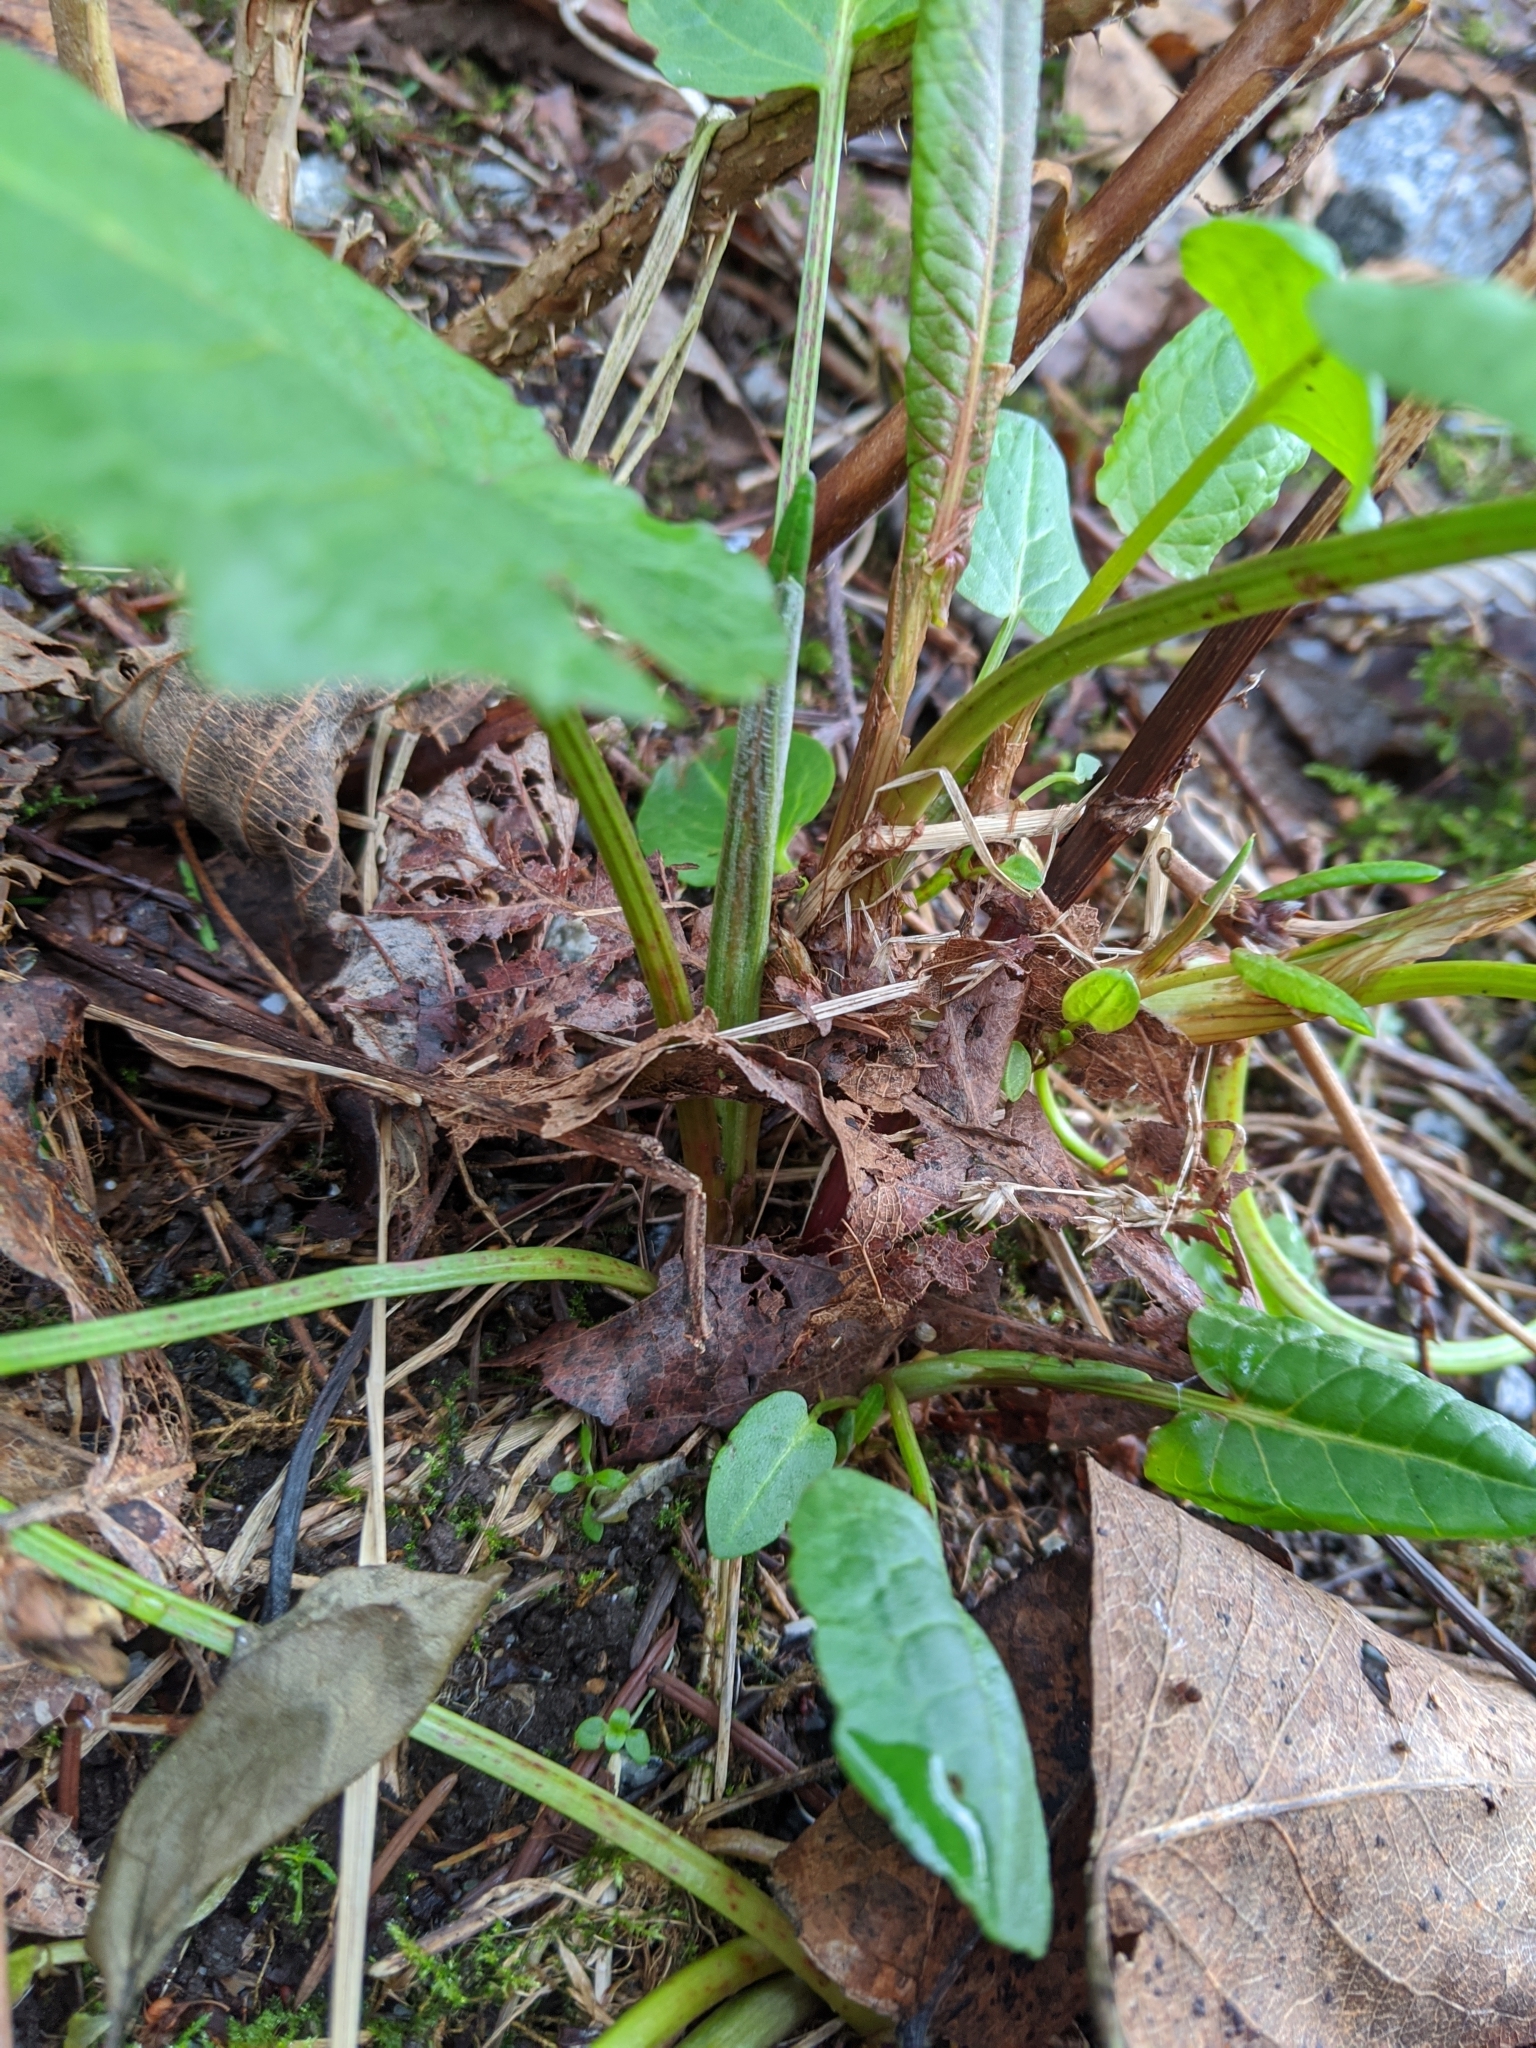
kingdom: Plantae
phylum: Tracheophyta
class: Magnoliopsida
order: Caryophyllales
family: Polygonaceae
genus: Rumex
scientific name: Rumex obtusifolius
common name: Bitter dock
